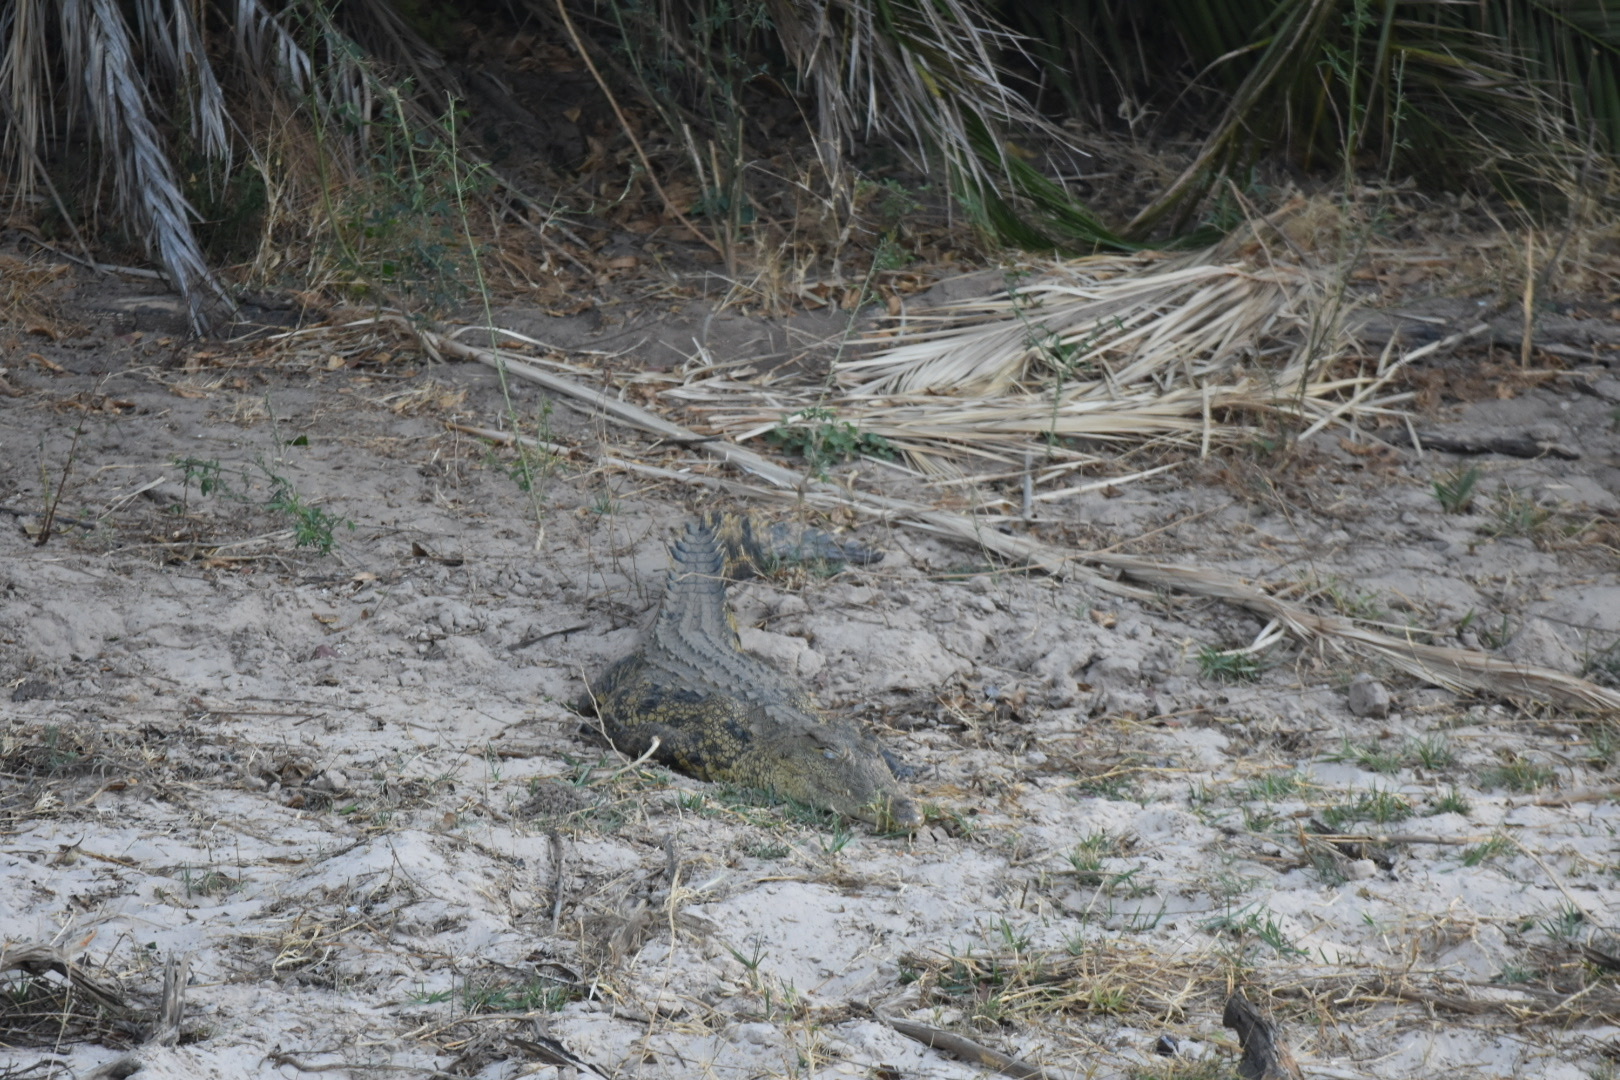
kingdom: Animalia
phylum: Chordata
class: Crocodylia
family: Crocodylidae
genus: Crocodylus
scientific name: Crocodylus niloticus
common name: Nile crocodile
